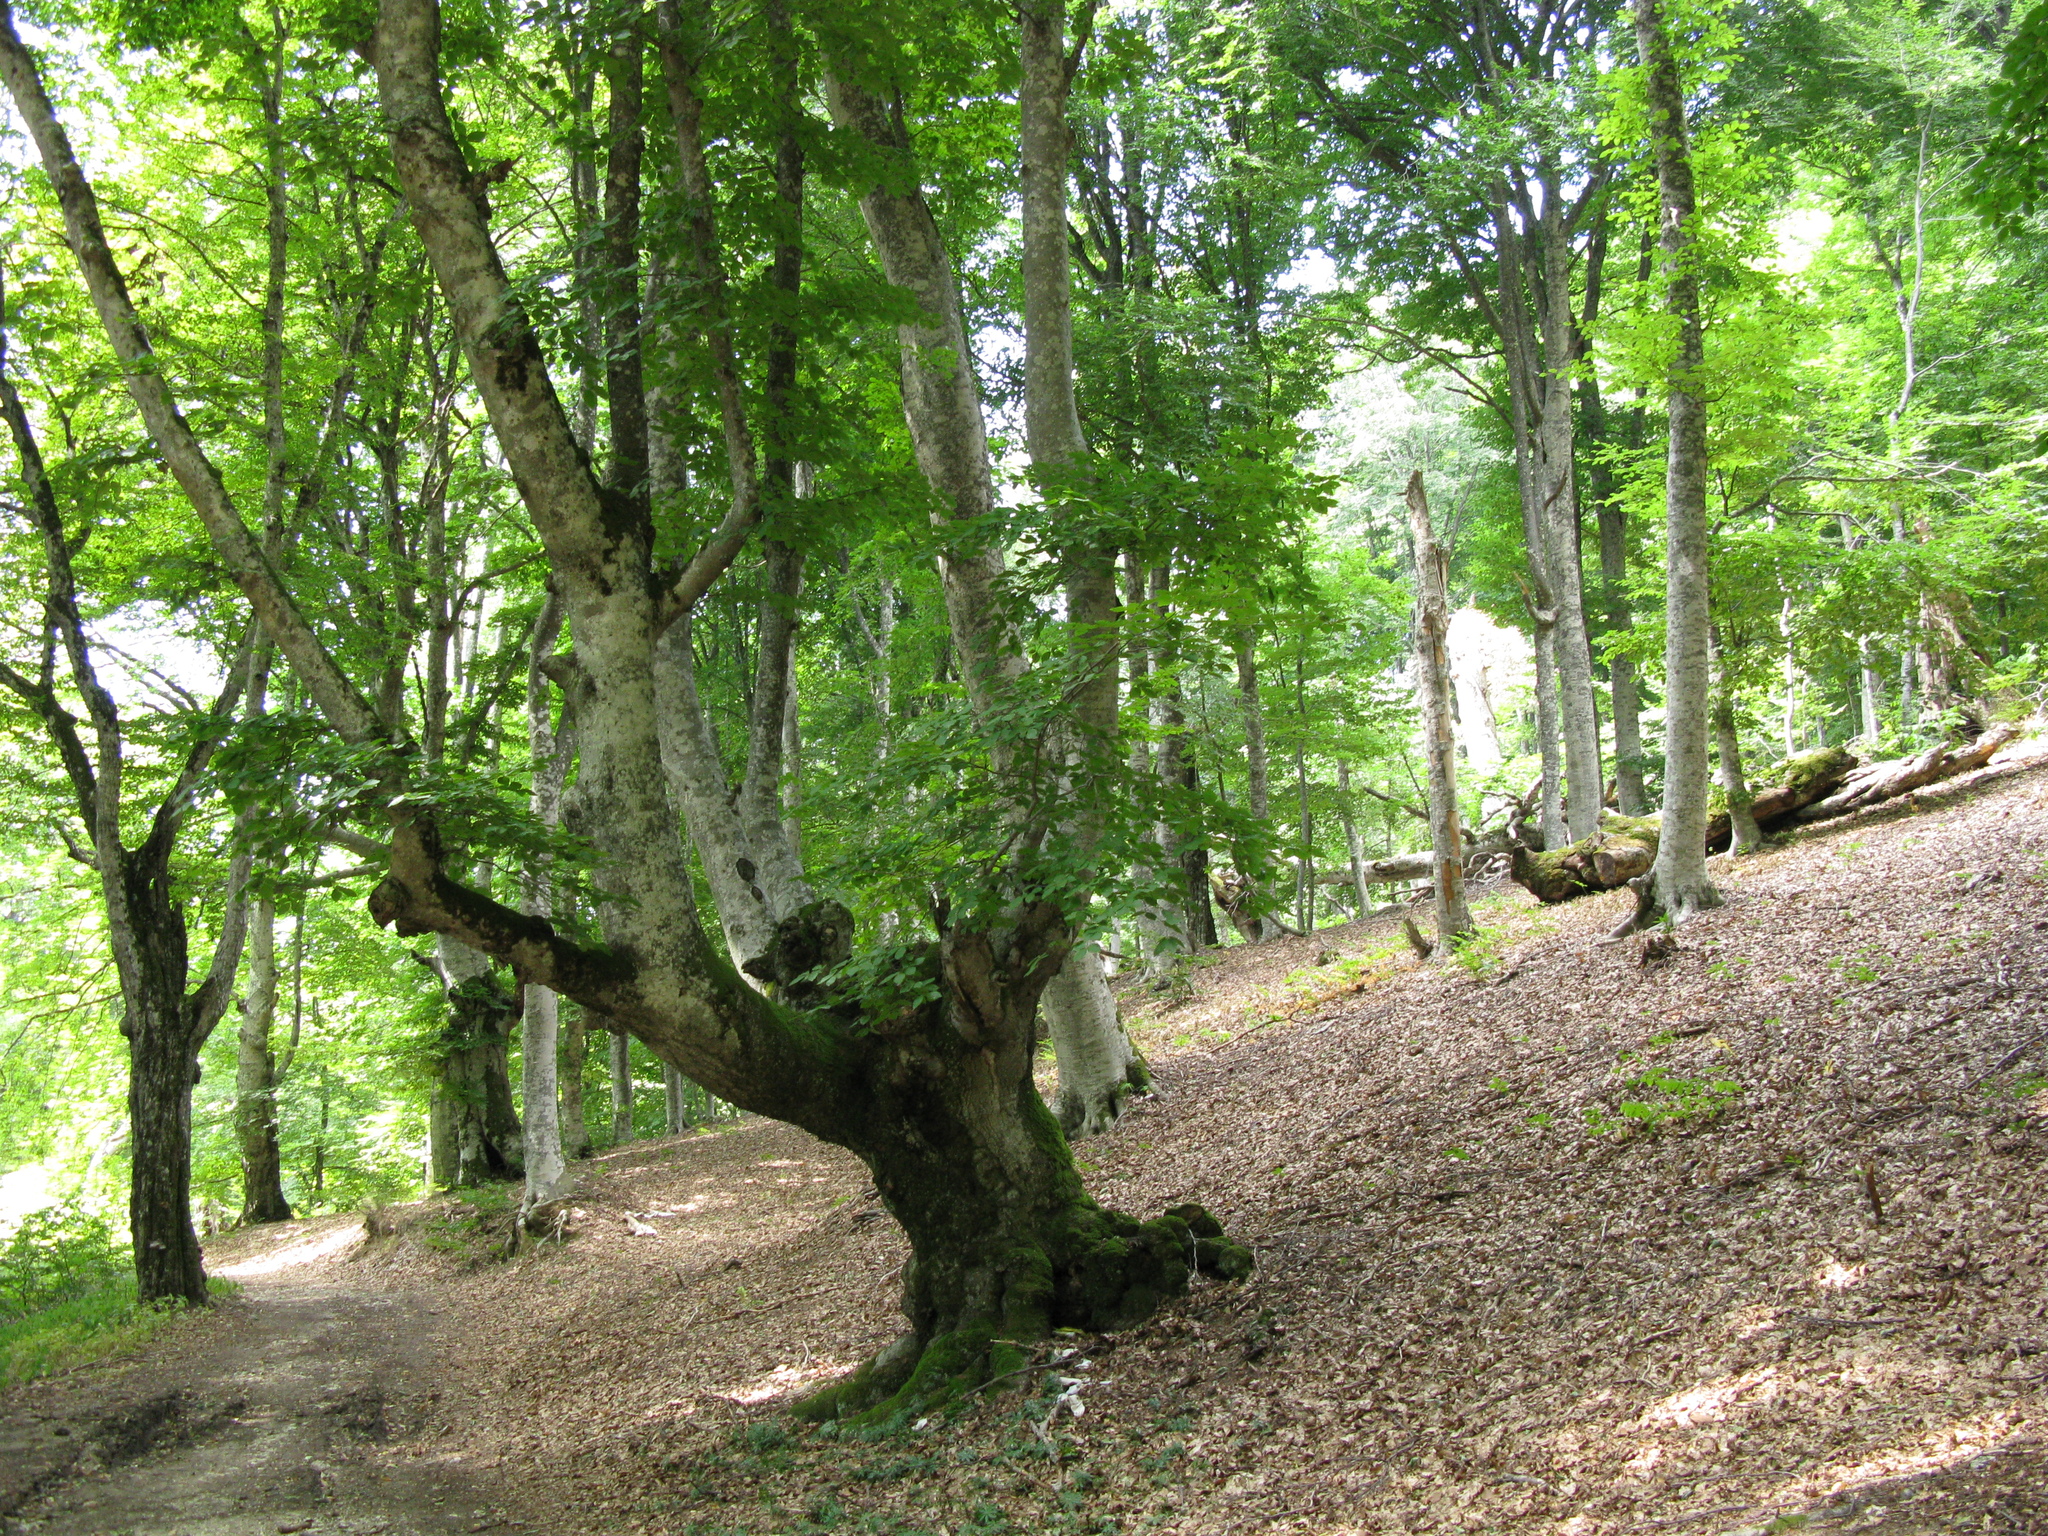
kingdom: Plantae
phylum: Tracheophyta
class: Magnoliopsida
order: Fagales
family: Fagaceae
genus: Fagus
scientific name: Fagus taurica
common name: Crimean beech
